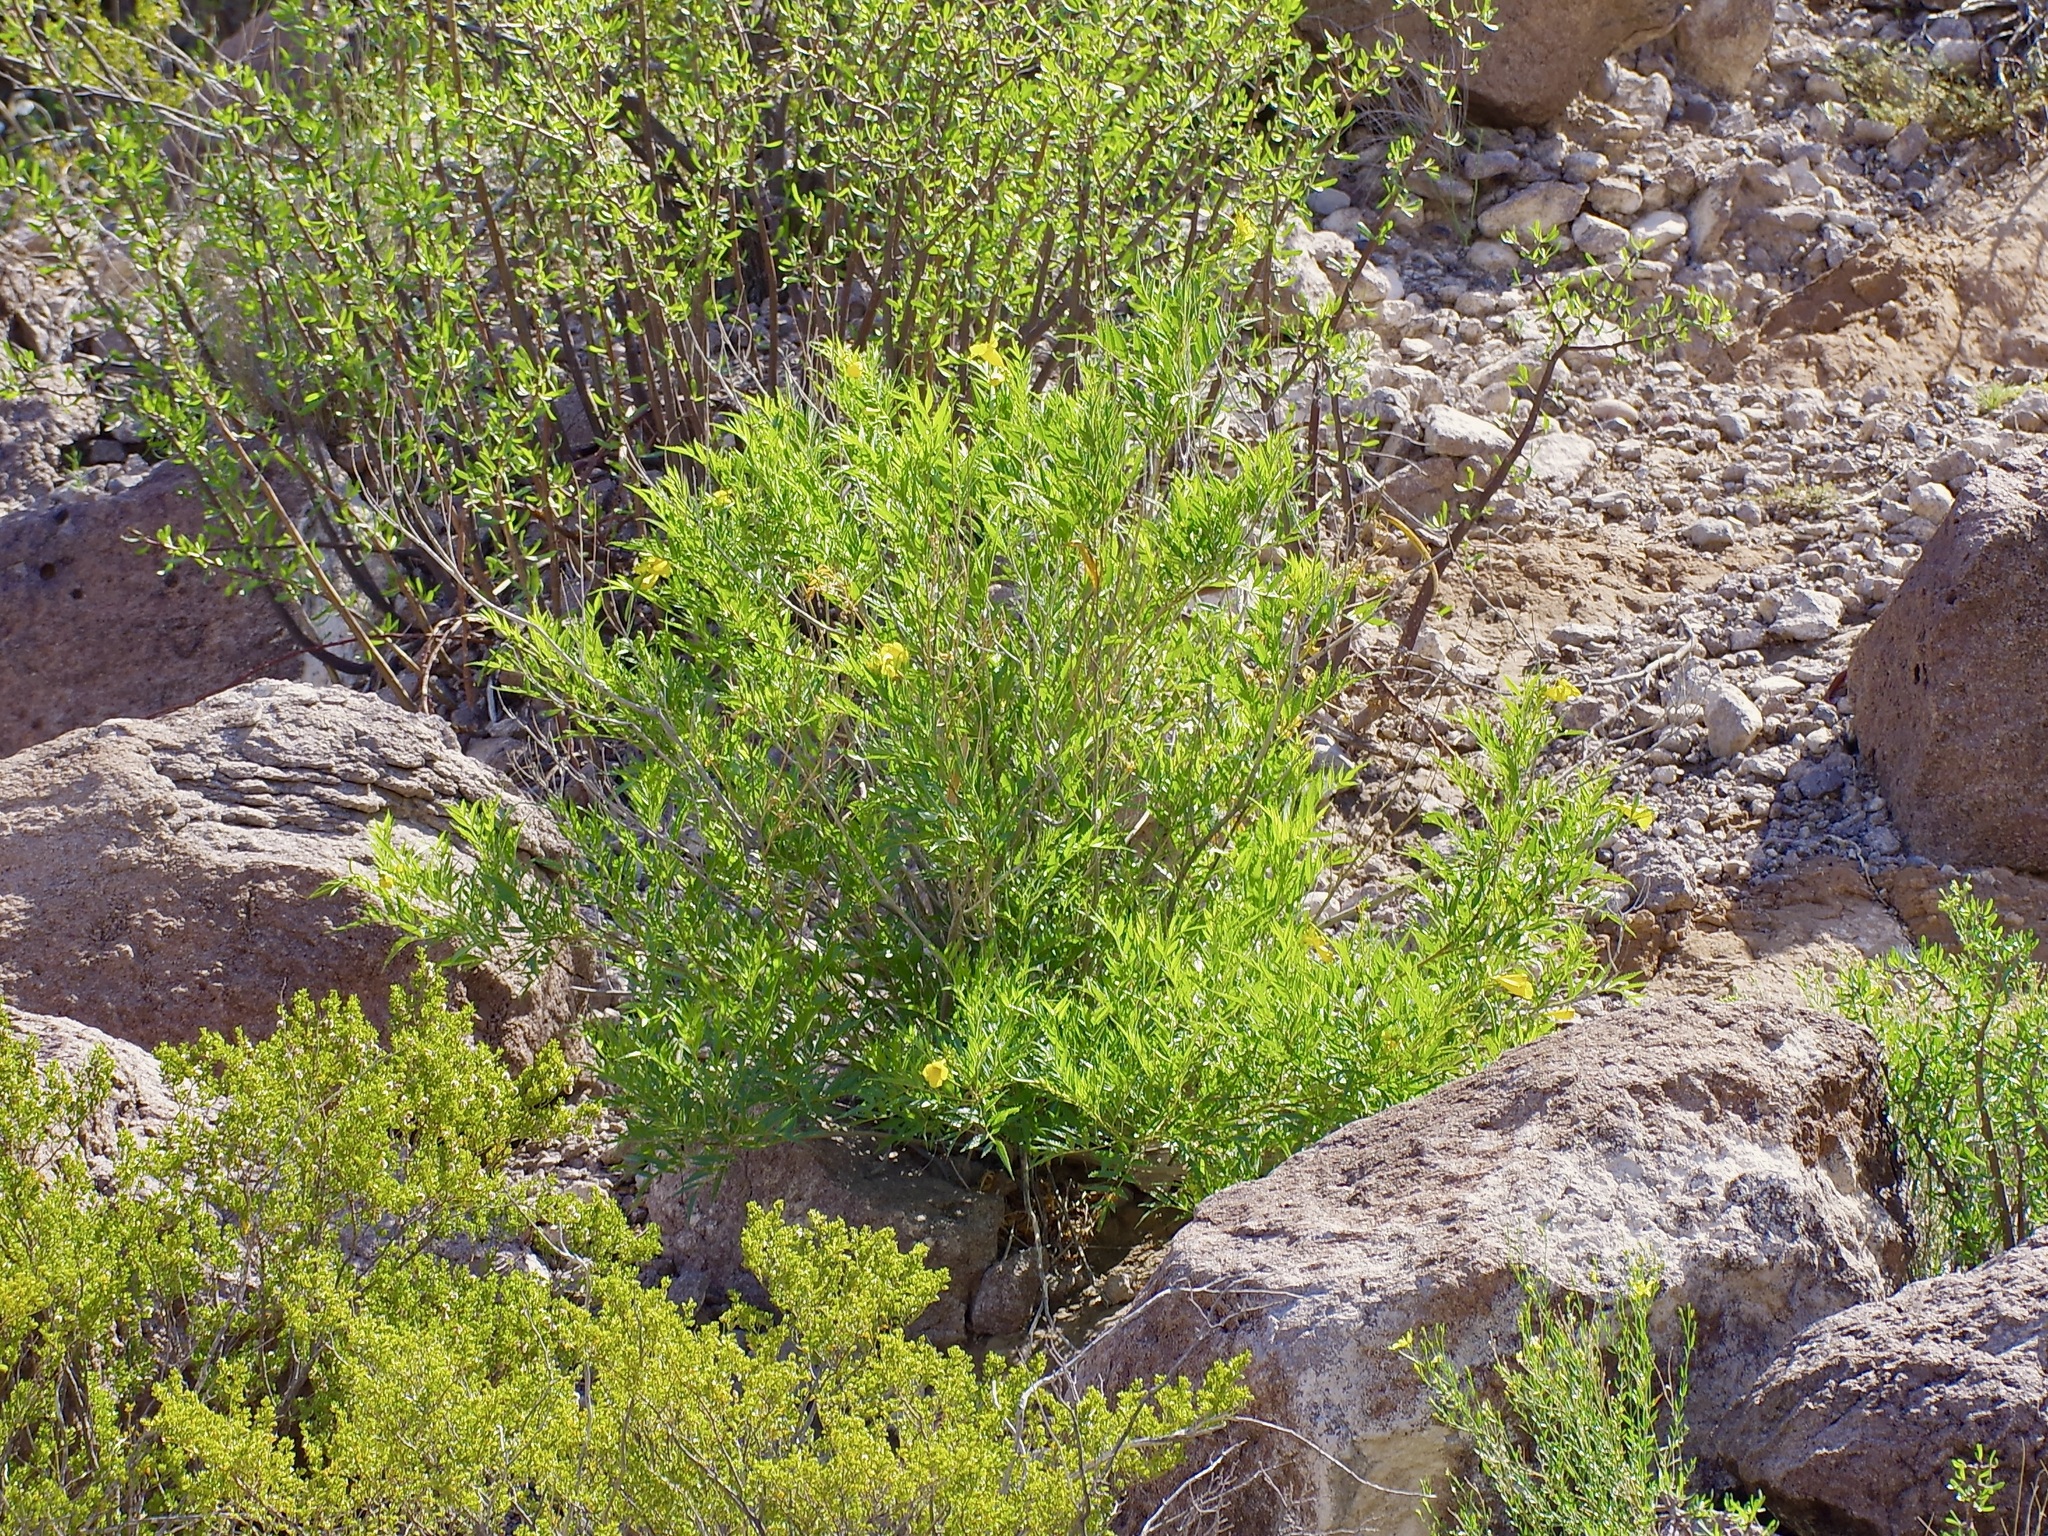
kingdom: Plantae
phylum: Tracheophyta
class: Magnoliopsida
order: Lamiales
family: Bignoniaceae
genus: Tecoma
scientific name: Tecoma stans
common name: Yellow trumpetbush
